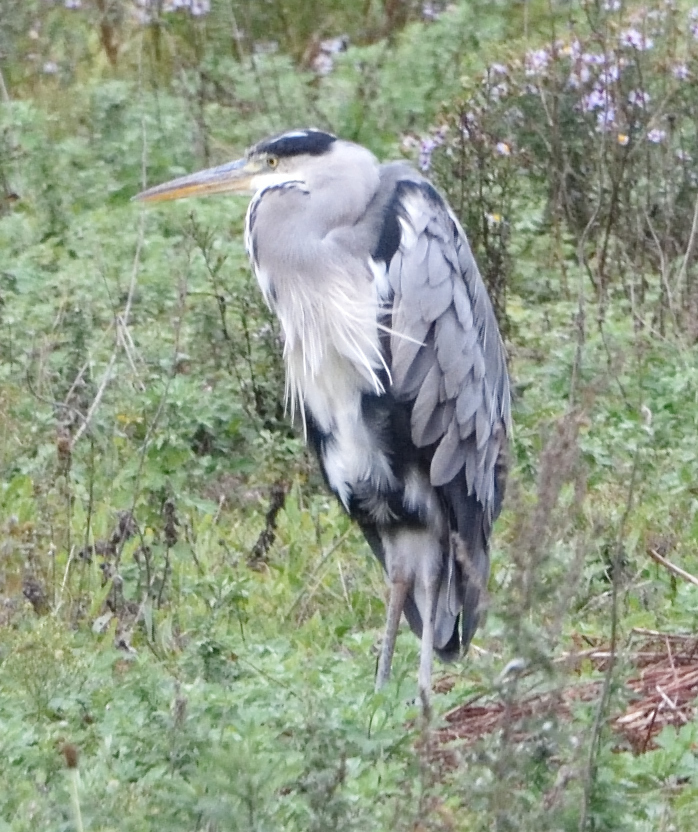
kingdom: Animalia
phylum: Chordata
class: Aves
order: Pelecaniformes
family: Ardeidae
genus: Ardea
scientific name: Ardea cinerea
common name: Grey heron
